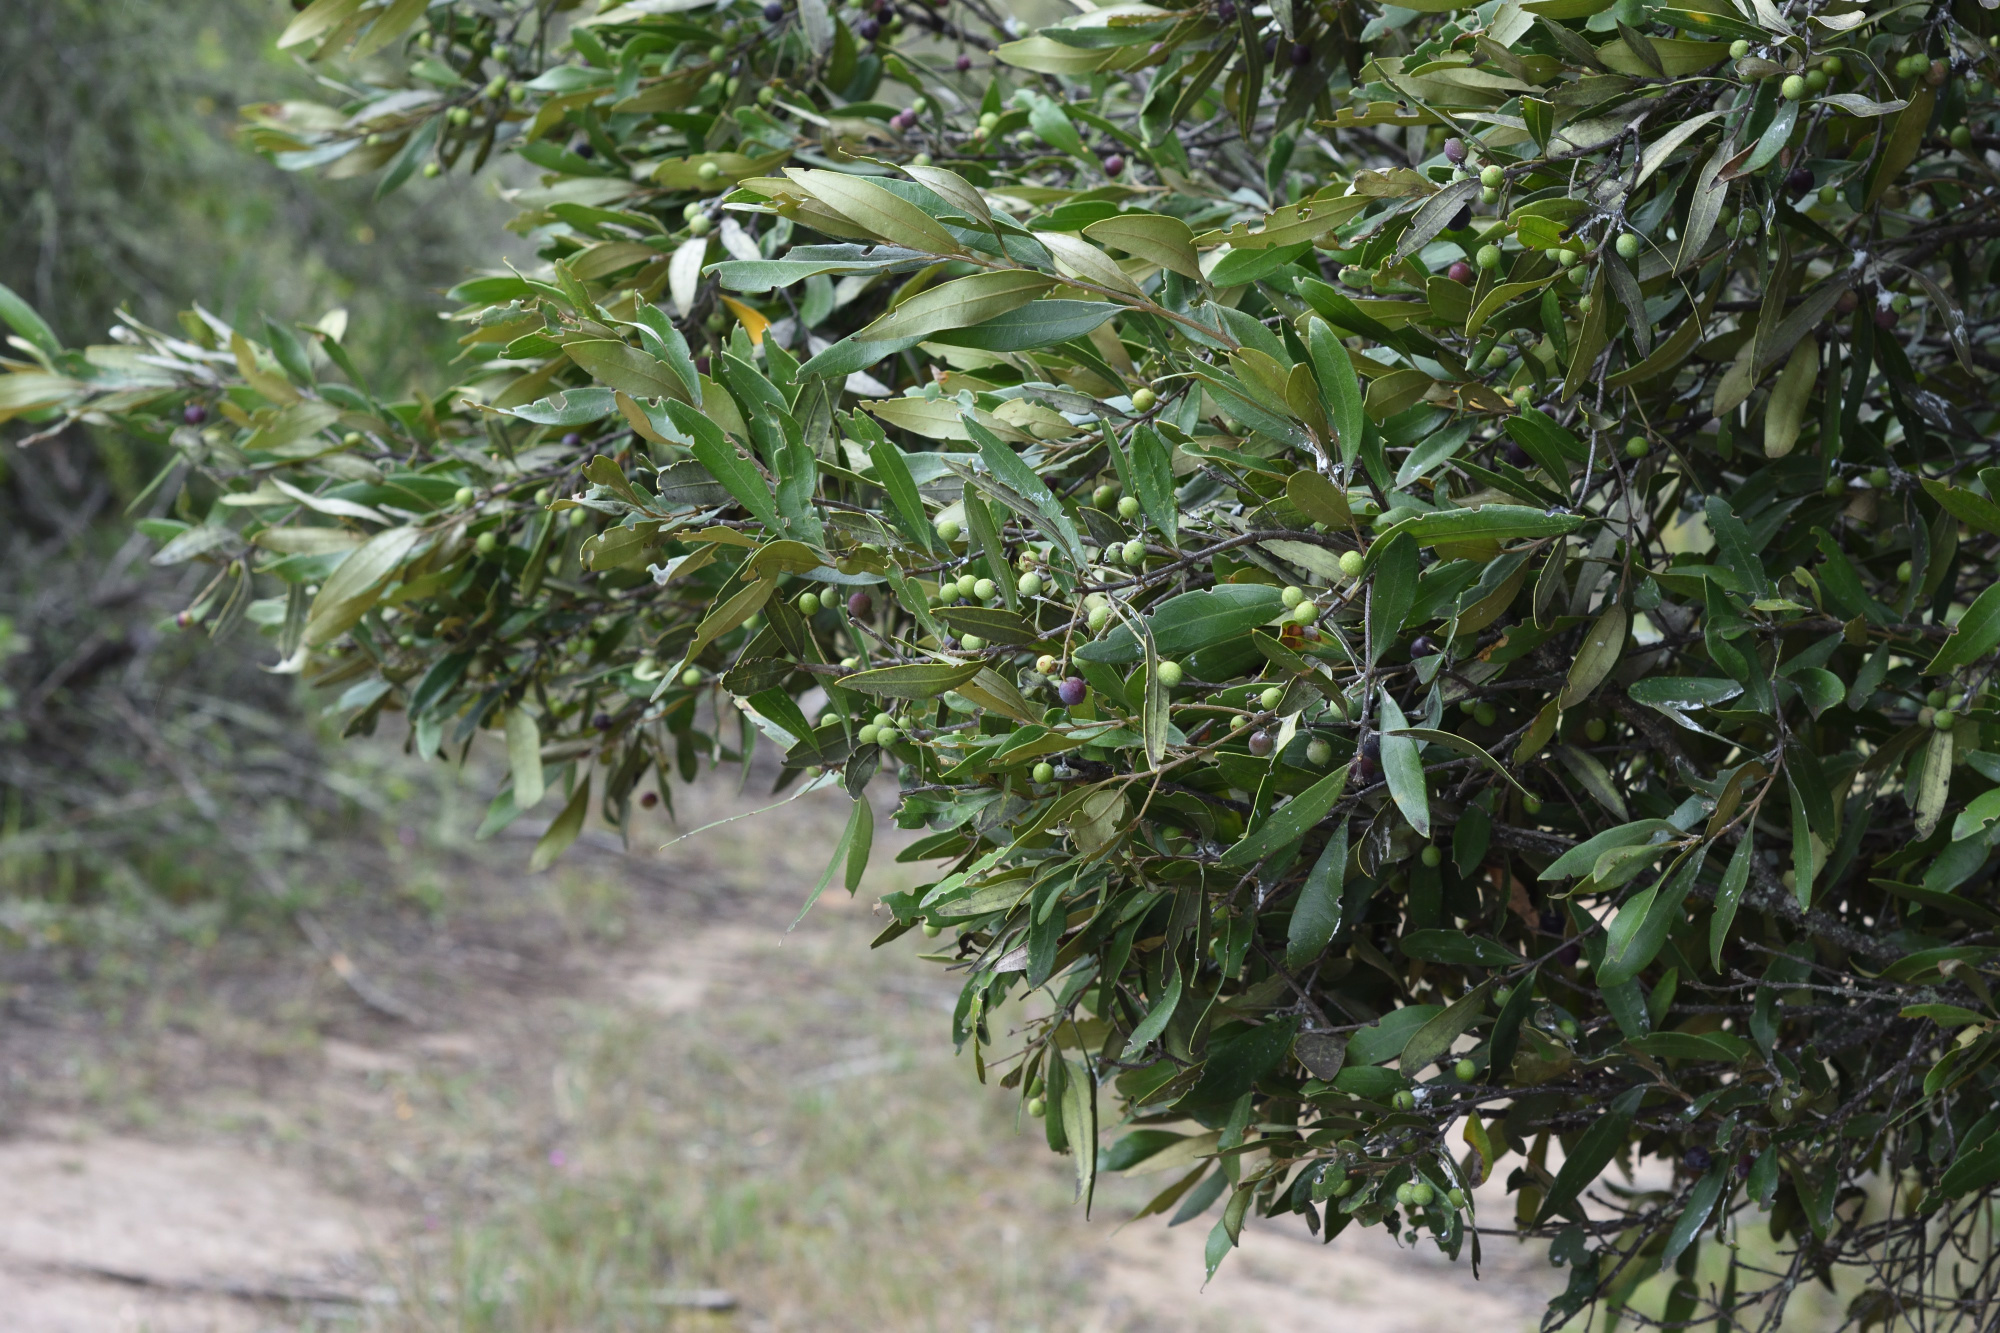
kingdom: Plantae
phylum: Tracheophyta
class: Magnoliopsida
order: Lamiales
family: Oleaceae
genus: Olea
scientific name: Olea europaea
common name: Olive
